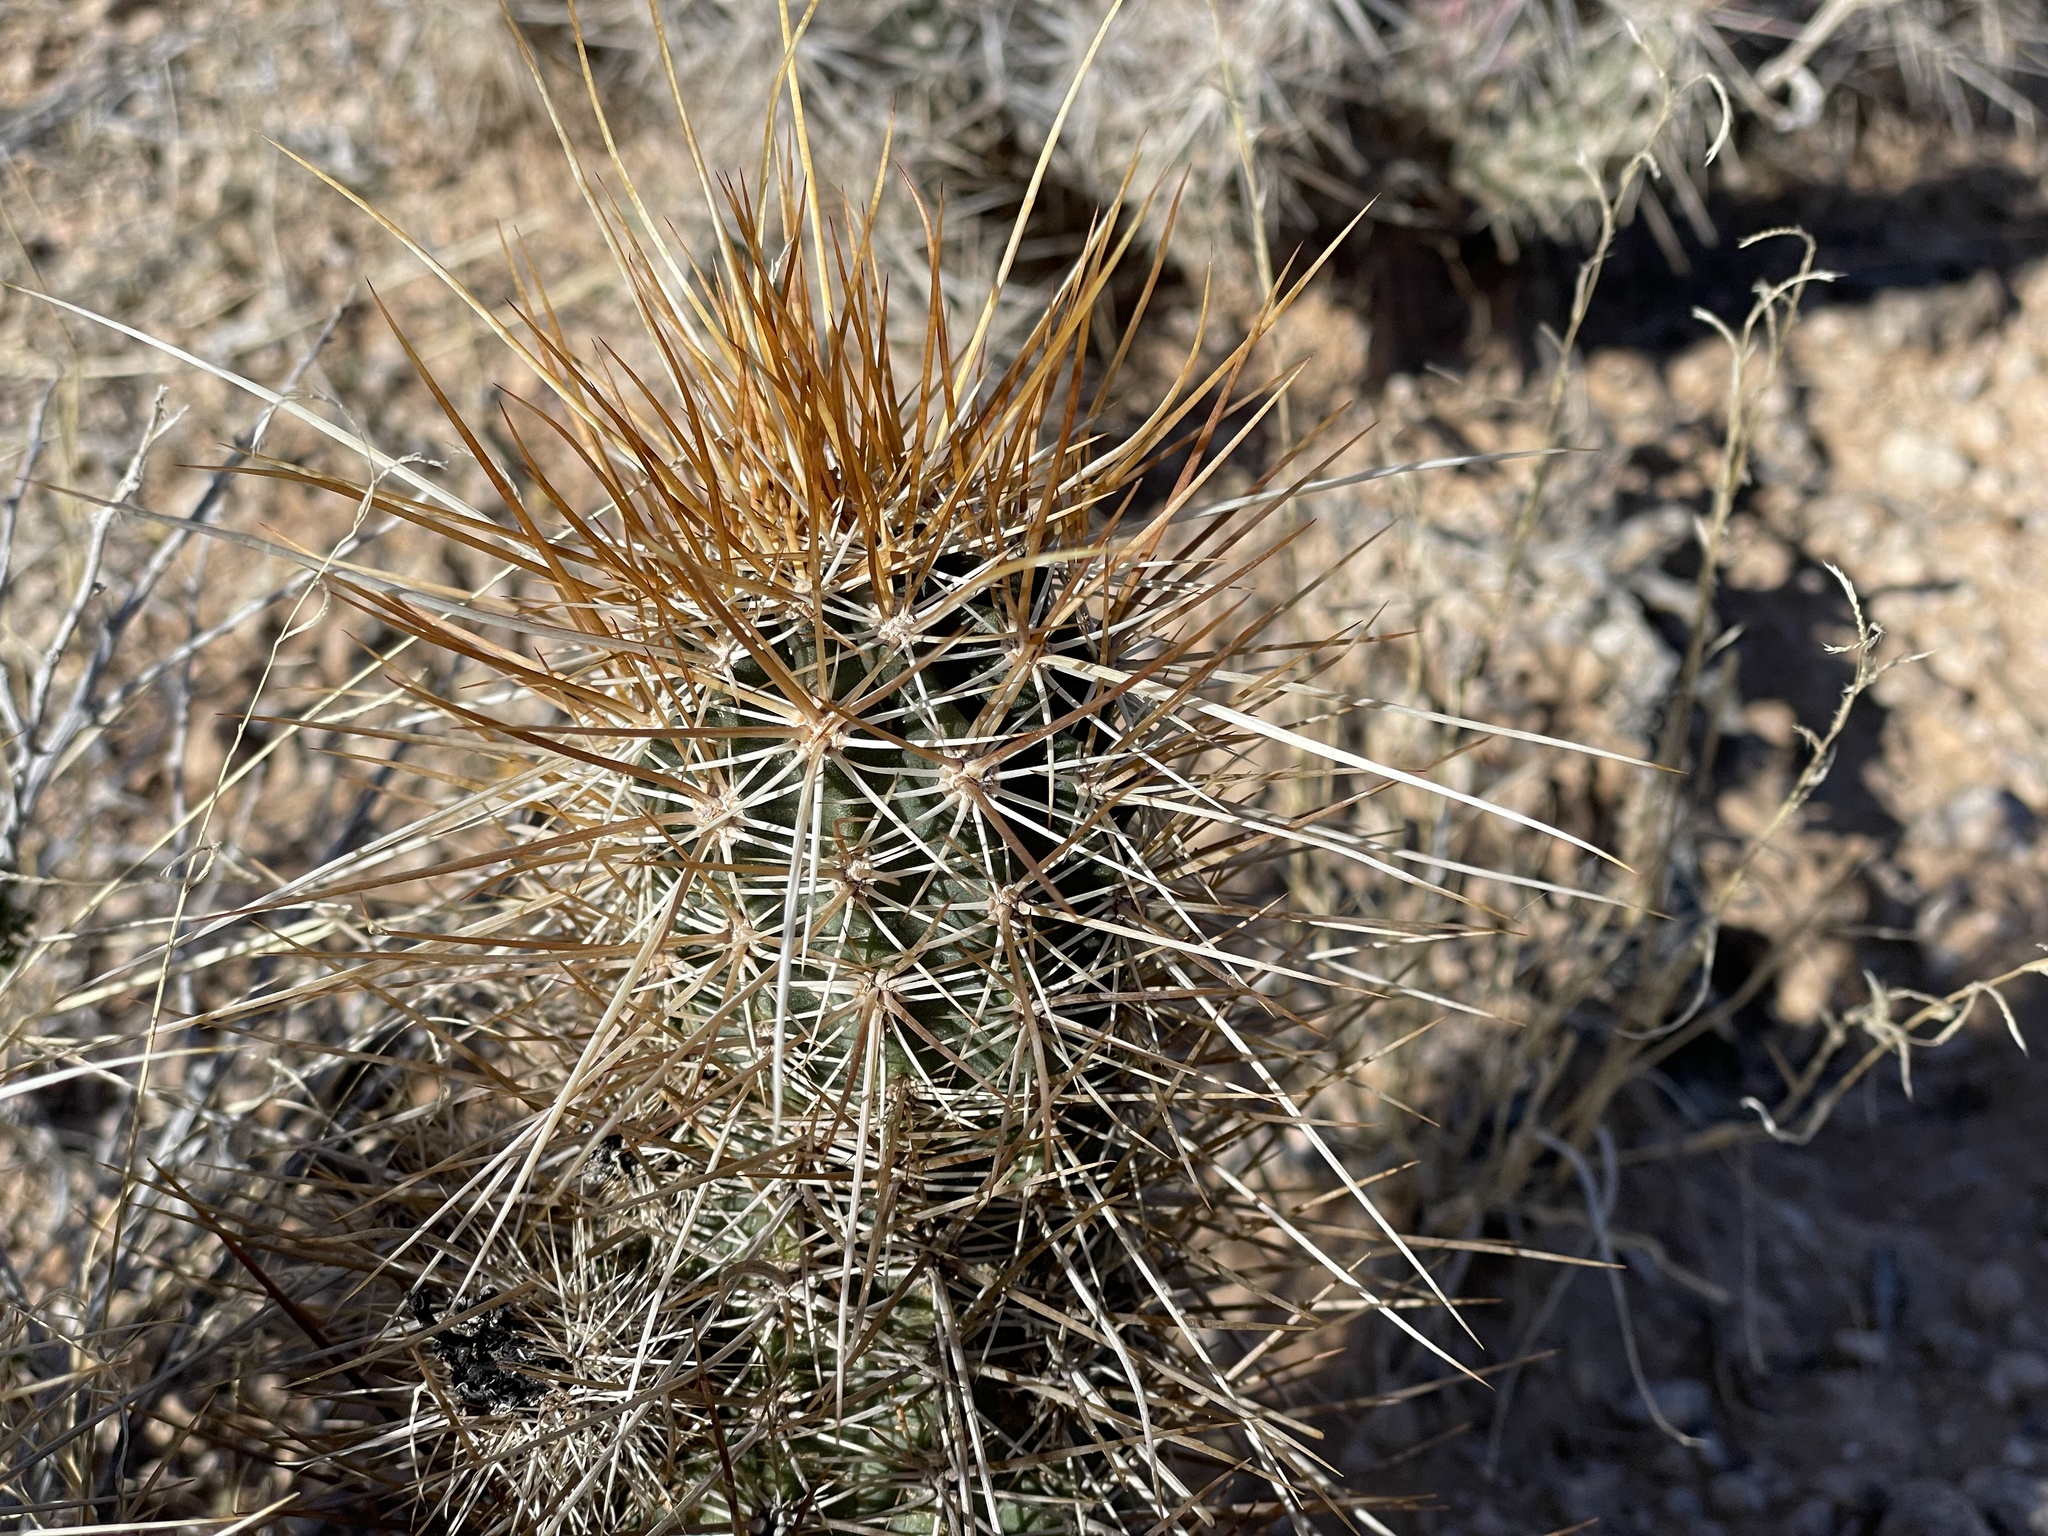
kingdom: Plantae
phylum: Tracheophyta
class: Magnoliopsida
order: Caryophyllales
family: Cactaceae
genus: Echinocereus
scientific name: Echinocereus engelmannii
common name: Engelmann's hedgehog cactus
